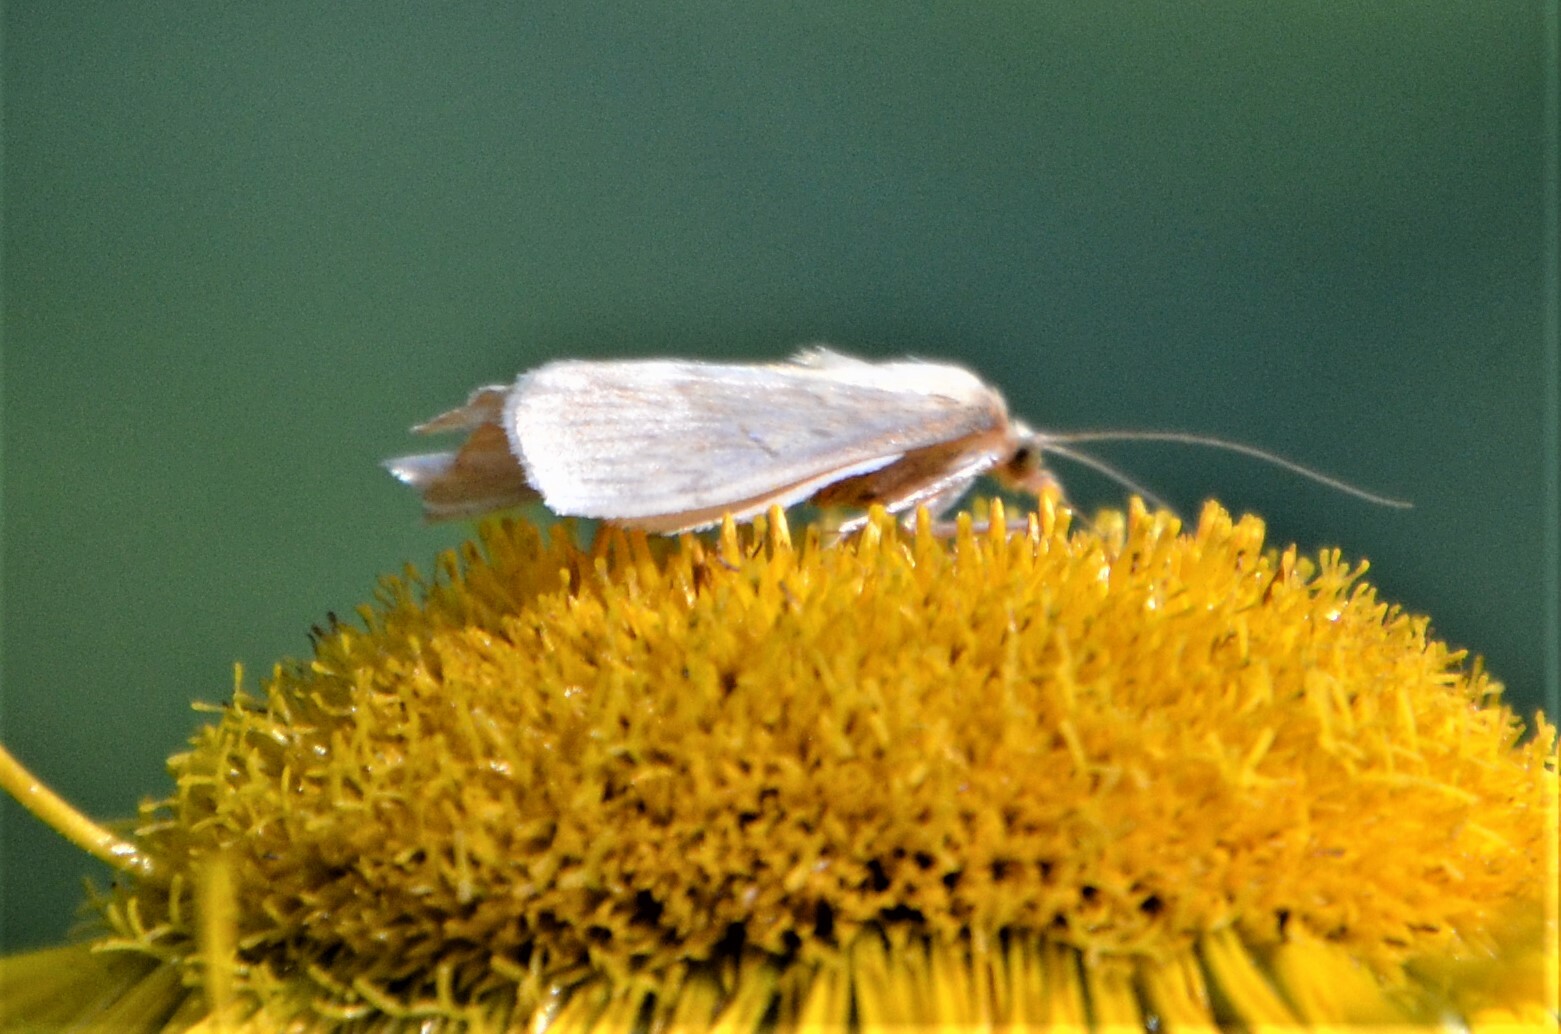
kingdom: Animalia
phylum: Arthropoda
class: Insecta
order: Lepidoptera
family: Crambidae
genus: Ostrinia
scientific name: Ostrinia nubilalis
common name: European corn borer
